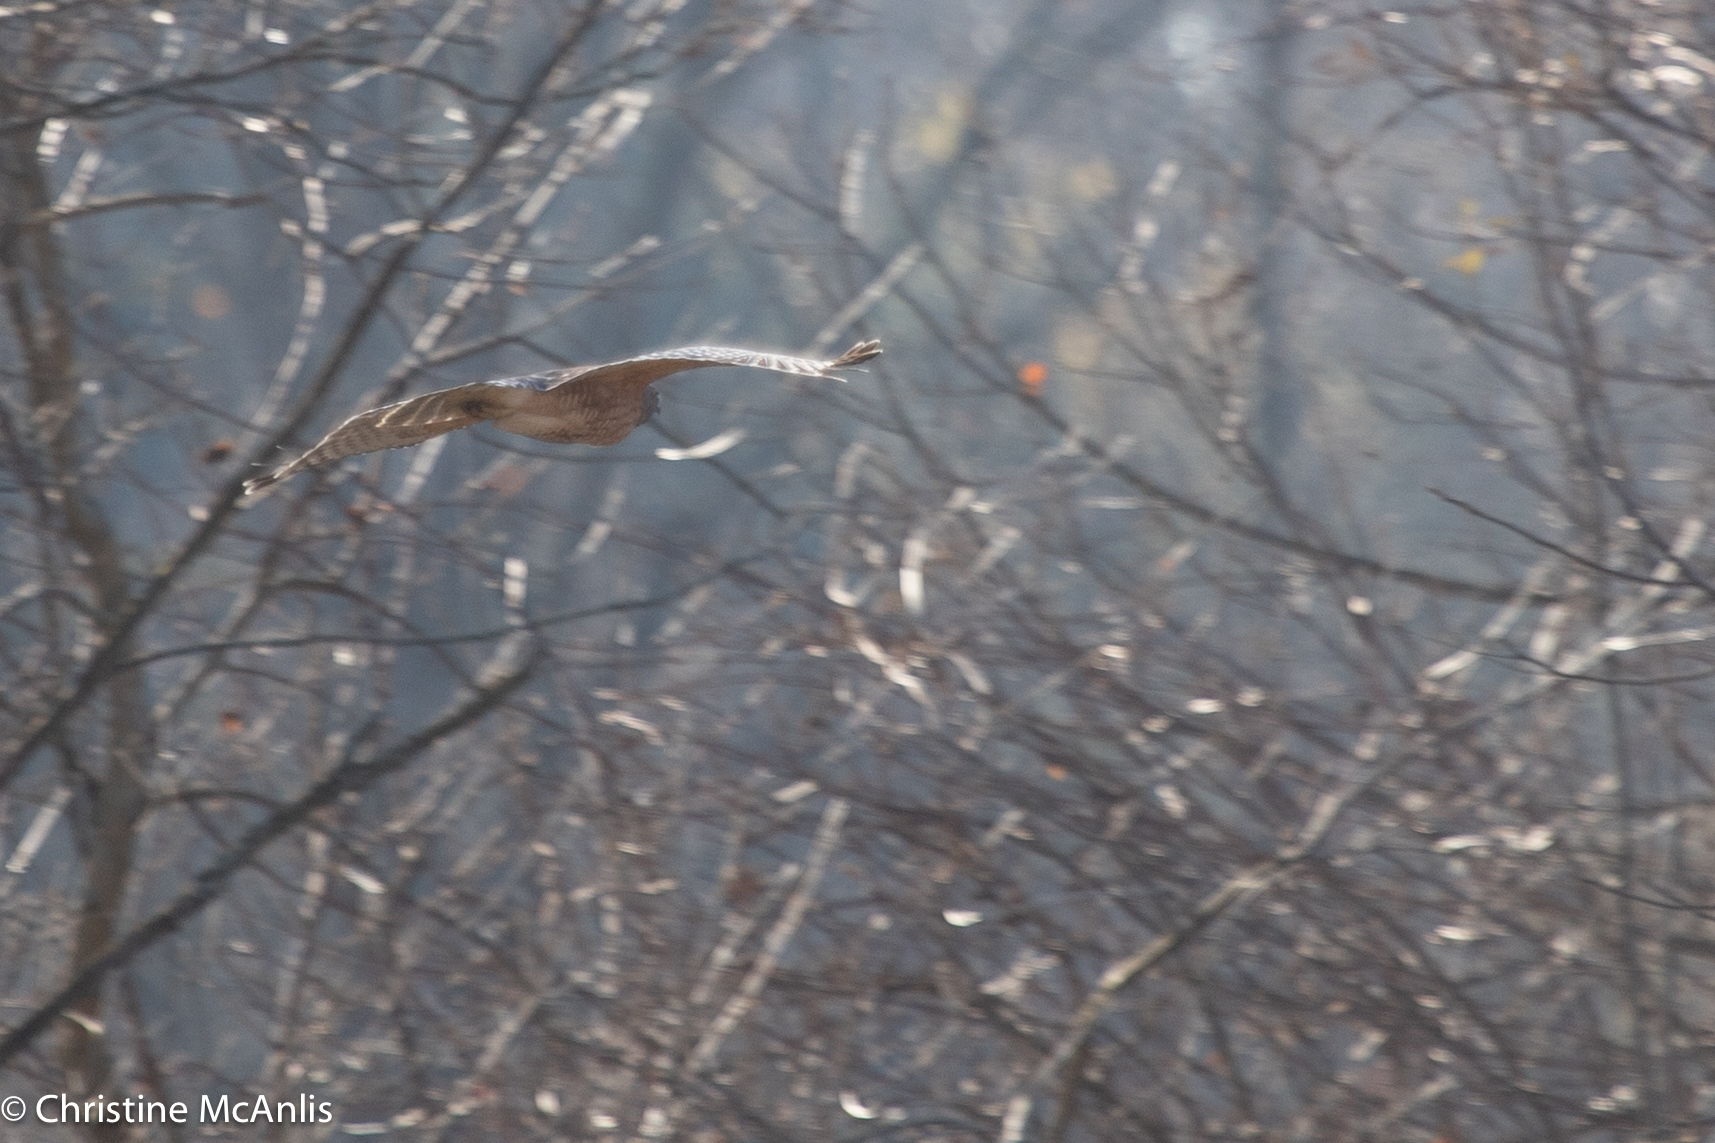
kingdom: Animalia
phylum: Chordata
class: Aves
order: Accipitriformes
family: Accipitridae
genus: Buteo
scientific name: Buteo lineatus
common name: Red-shouldered hawk
